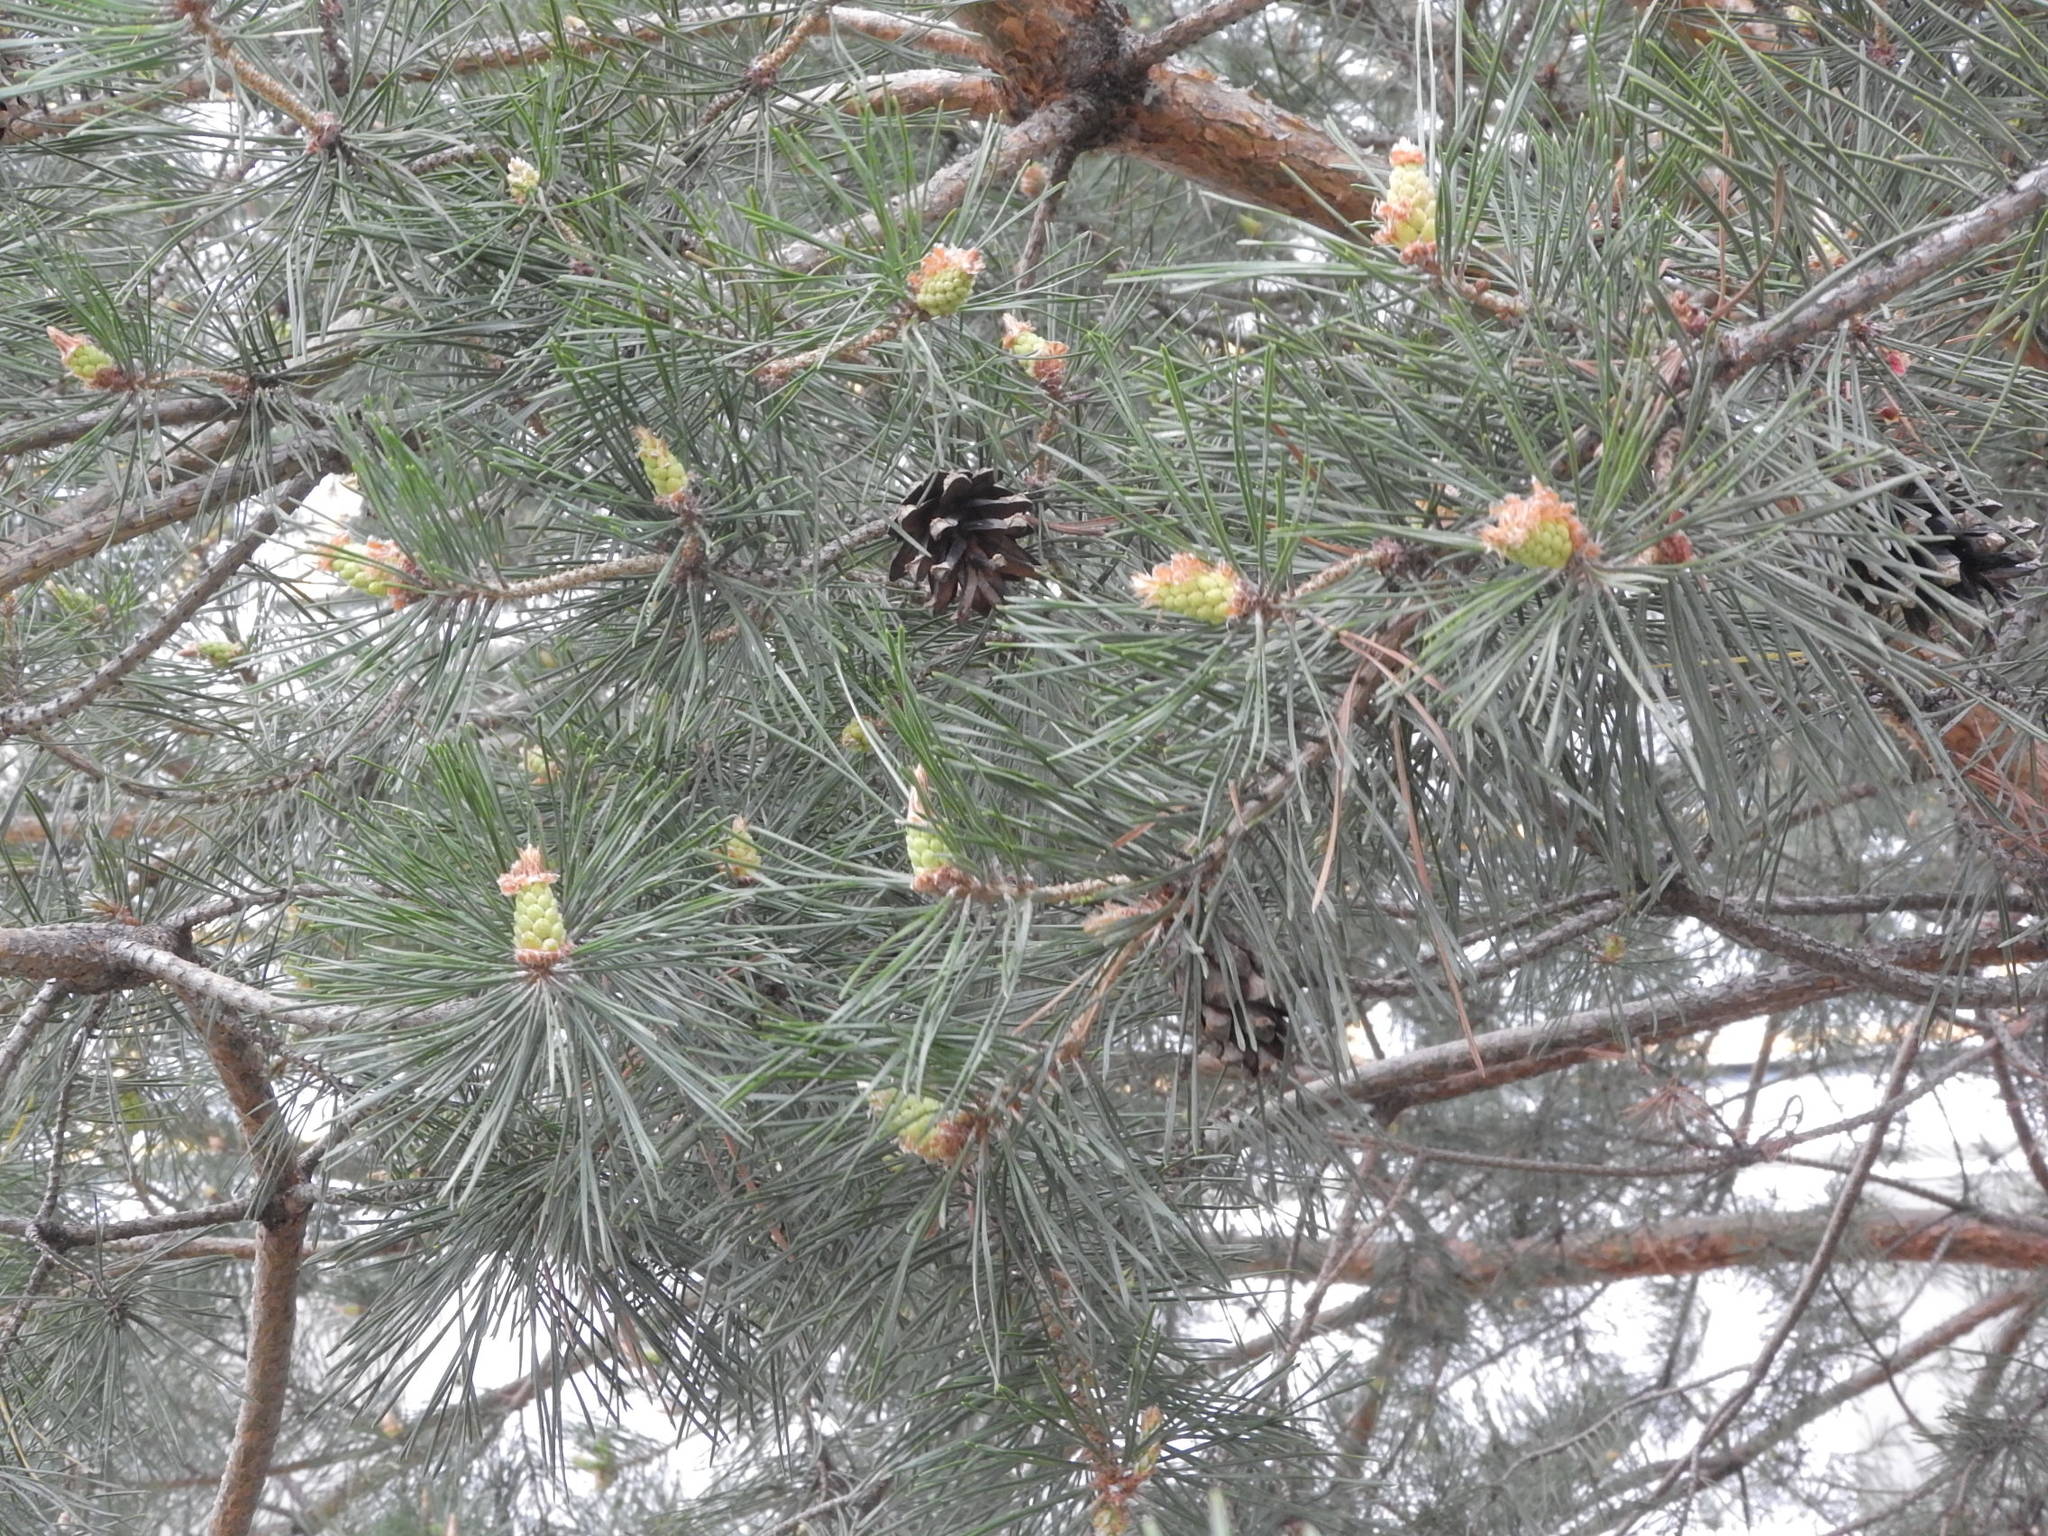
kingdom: Plantae
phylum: Tracheophyta
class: Pinopsida
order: Pinales
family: Pinaceae
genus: Pinus
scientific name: Pinus sylvestris
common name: Scots pine
